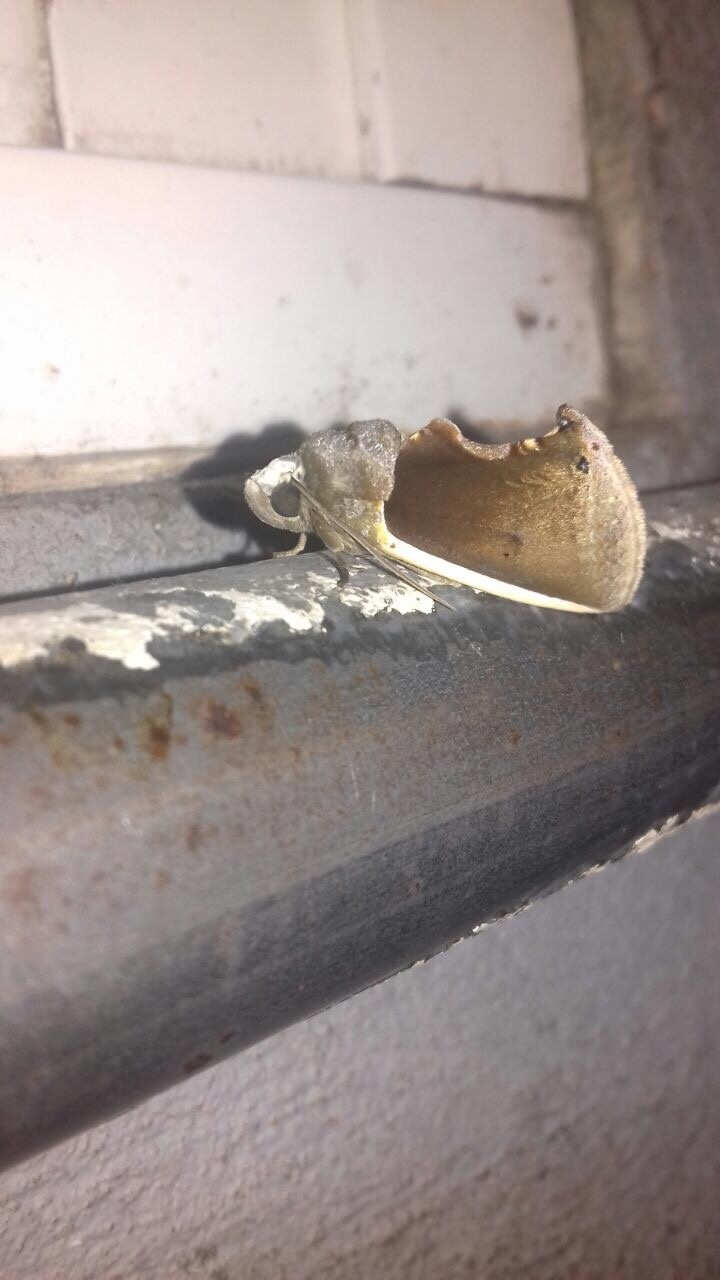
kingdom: Animalia
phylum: Arthropoda
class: Insecta
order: Lepidoptera
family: Erebidae
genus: Gonodonta
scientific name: Gonodonta pyrgo
